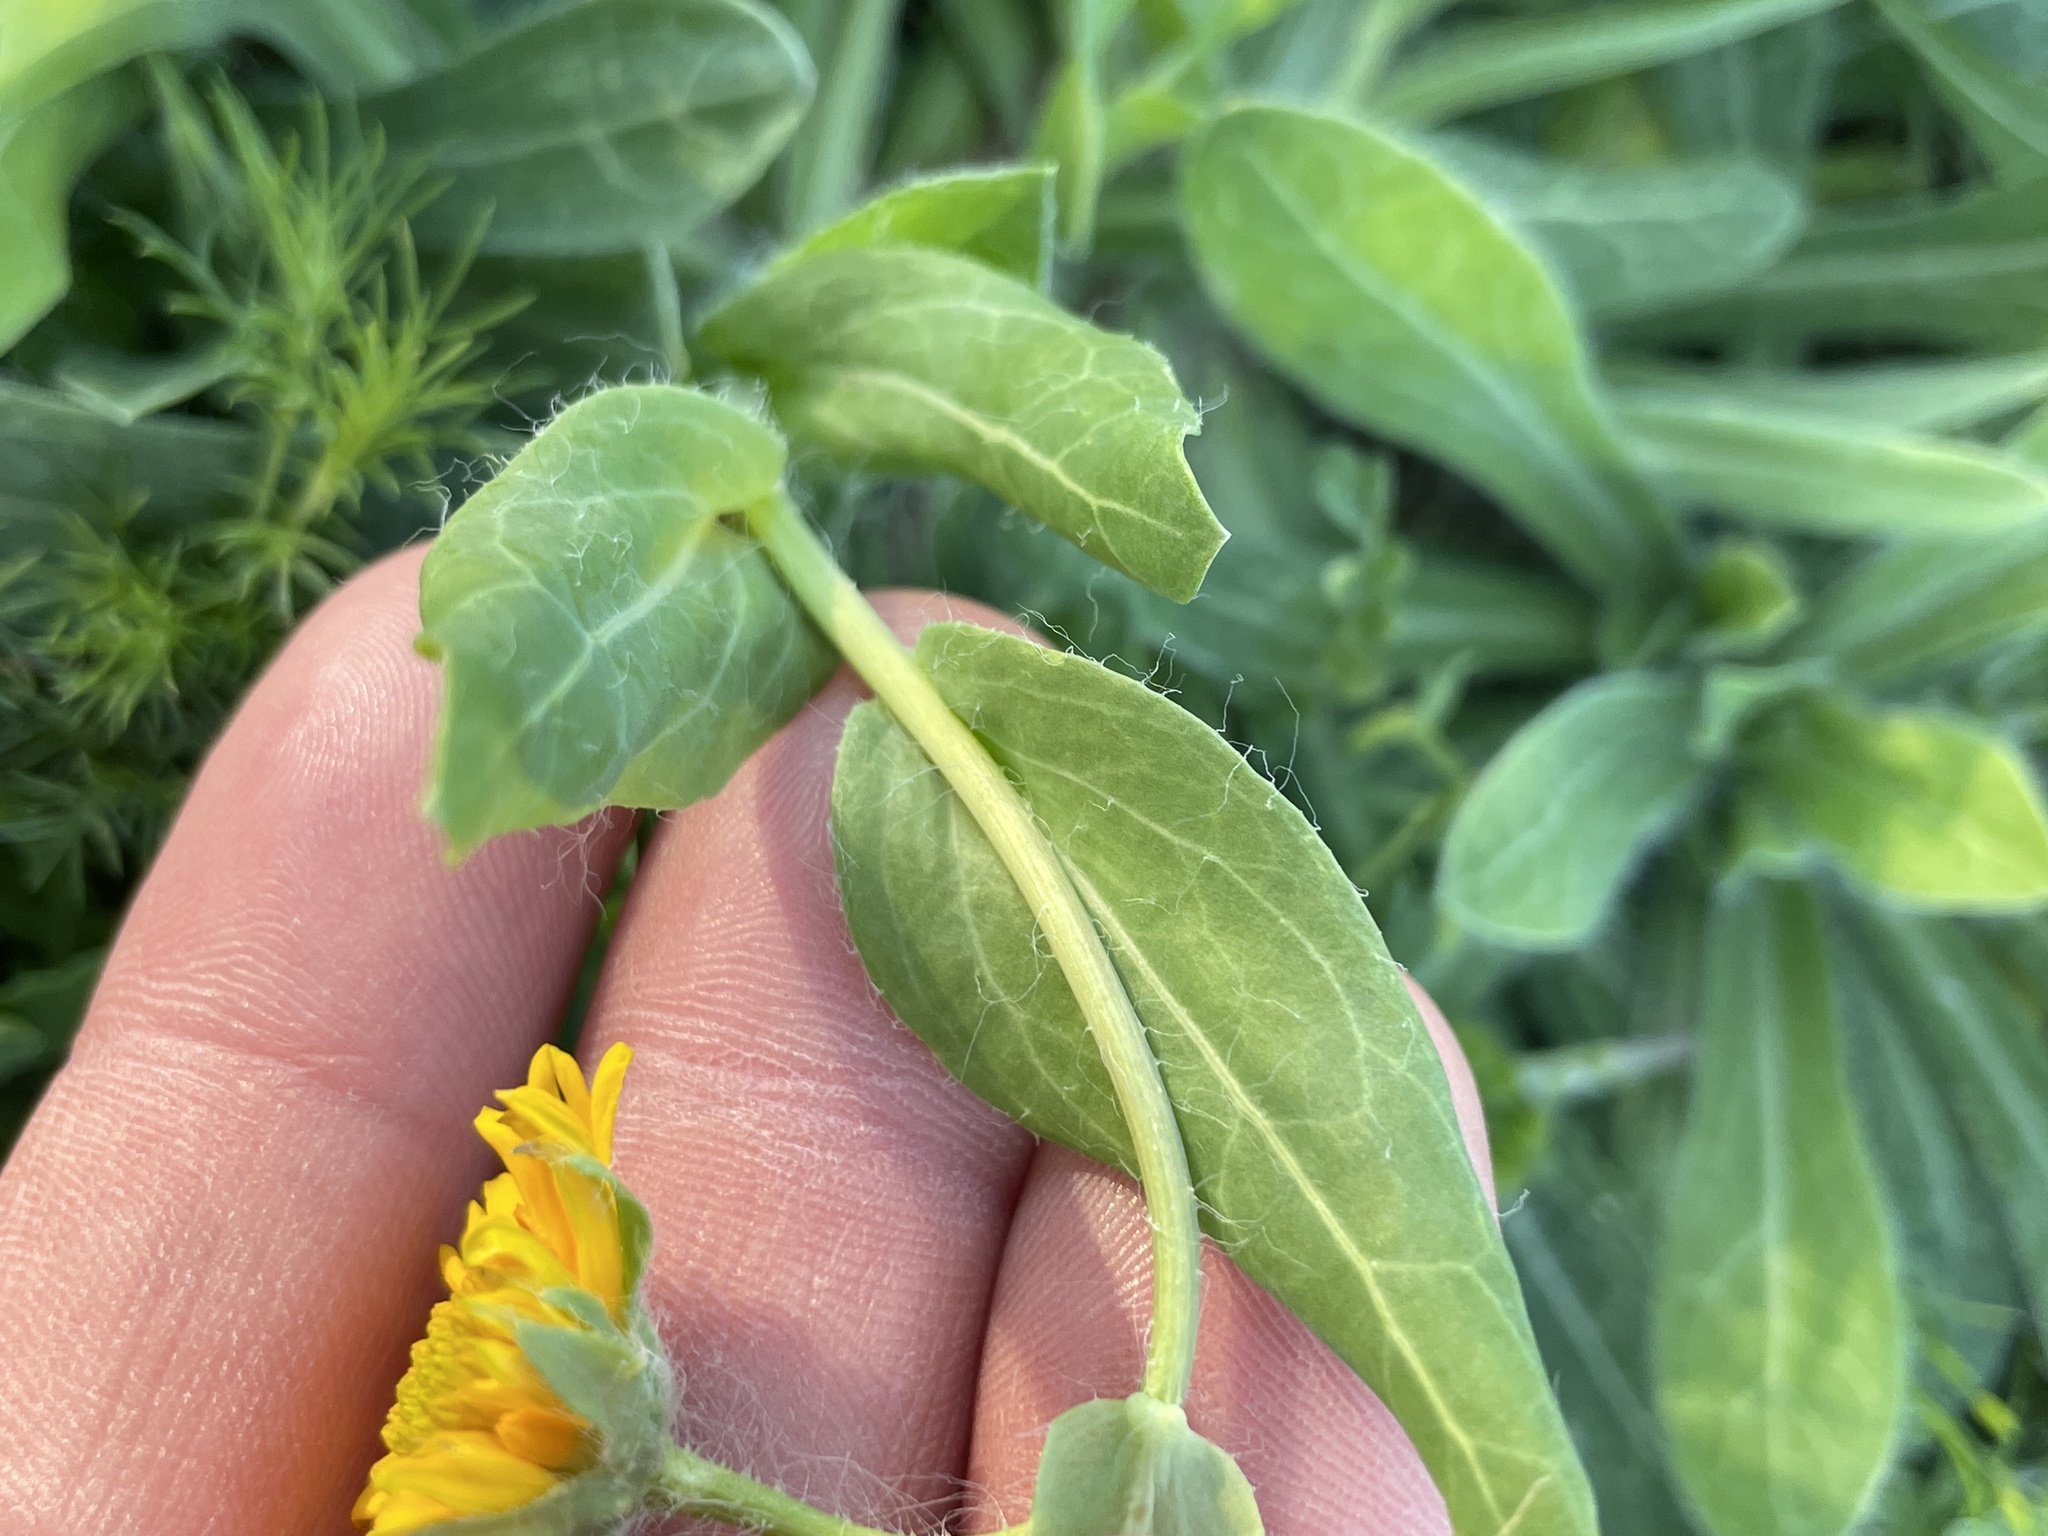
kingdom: Plantae
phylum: Tracheophyta
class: Magnoliopsida
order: Asterales
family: Asteraceae
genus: Amblyolepis
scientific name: Amblyolepis setigera
